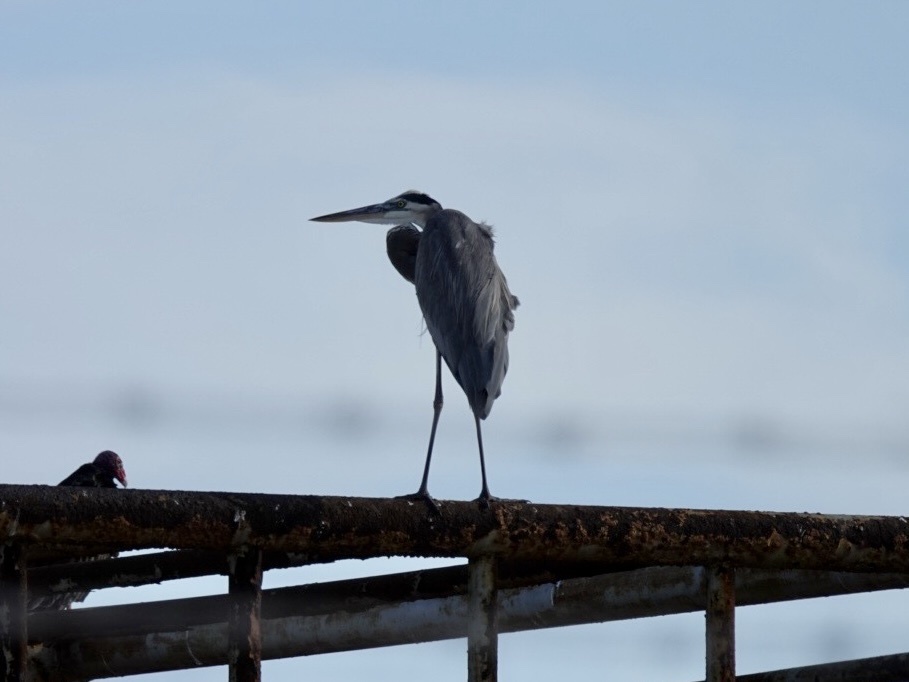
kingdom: Animalia
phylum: Chordata
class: Aves
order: Pelecaniformes
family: Ardeidae
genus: Ardea
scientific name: Ardea herodias
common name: Great blue heron
